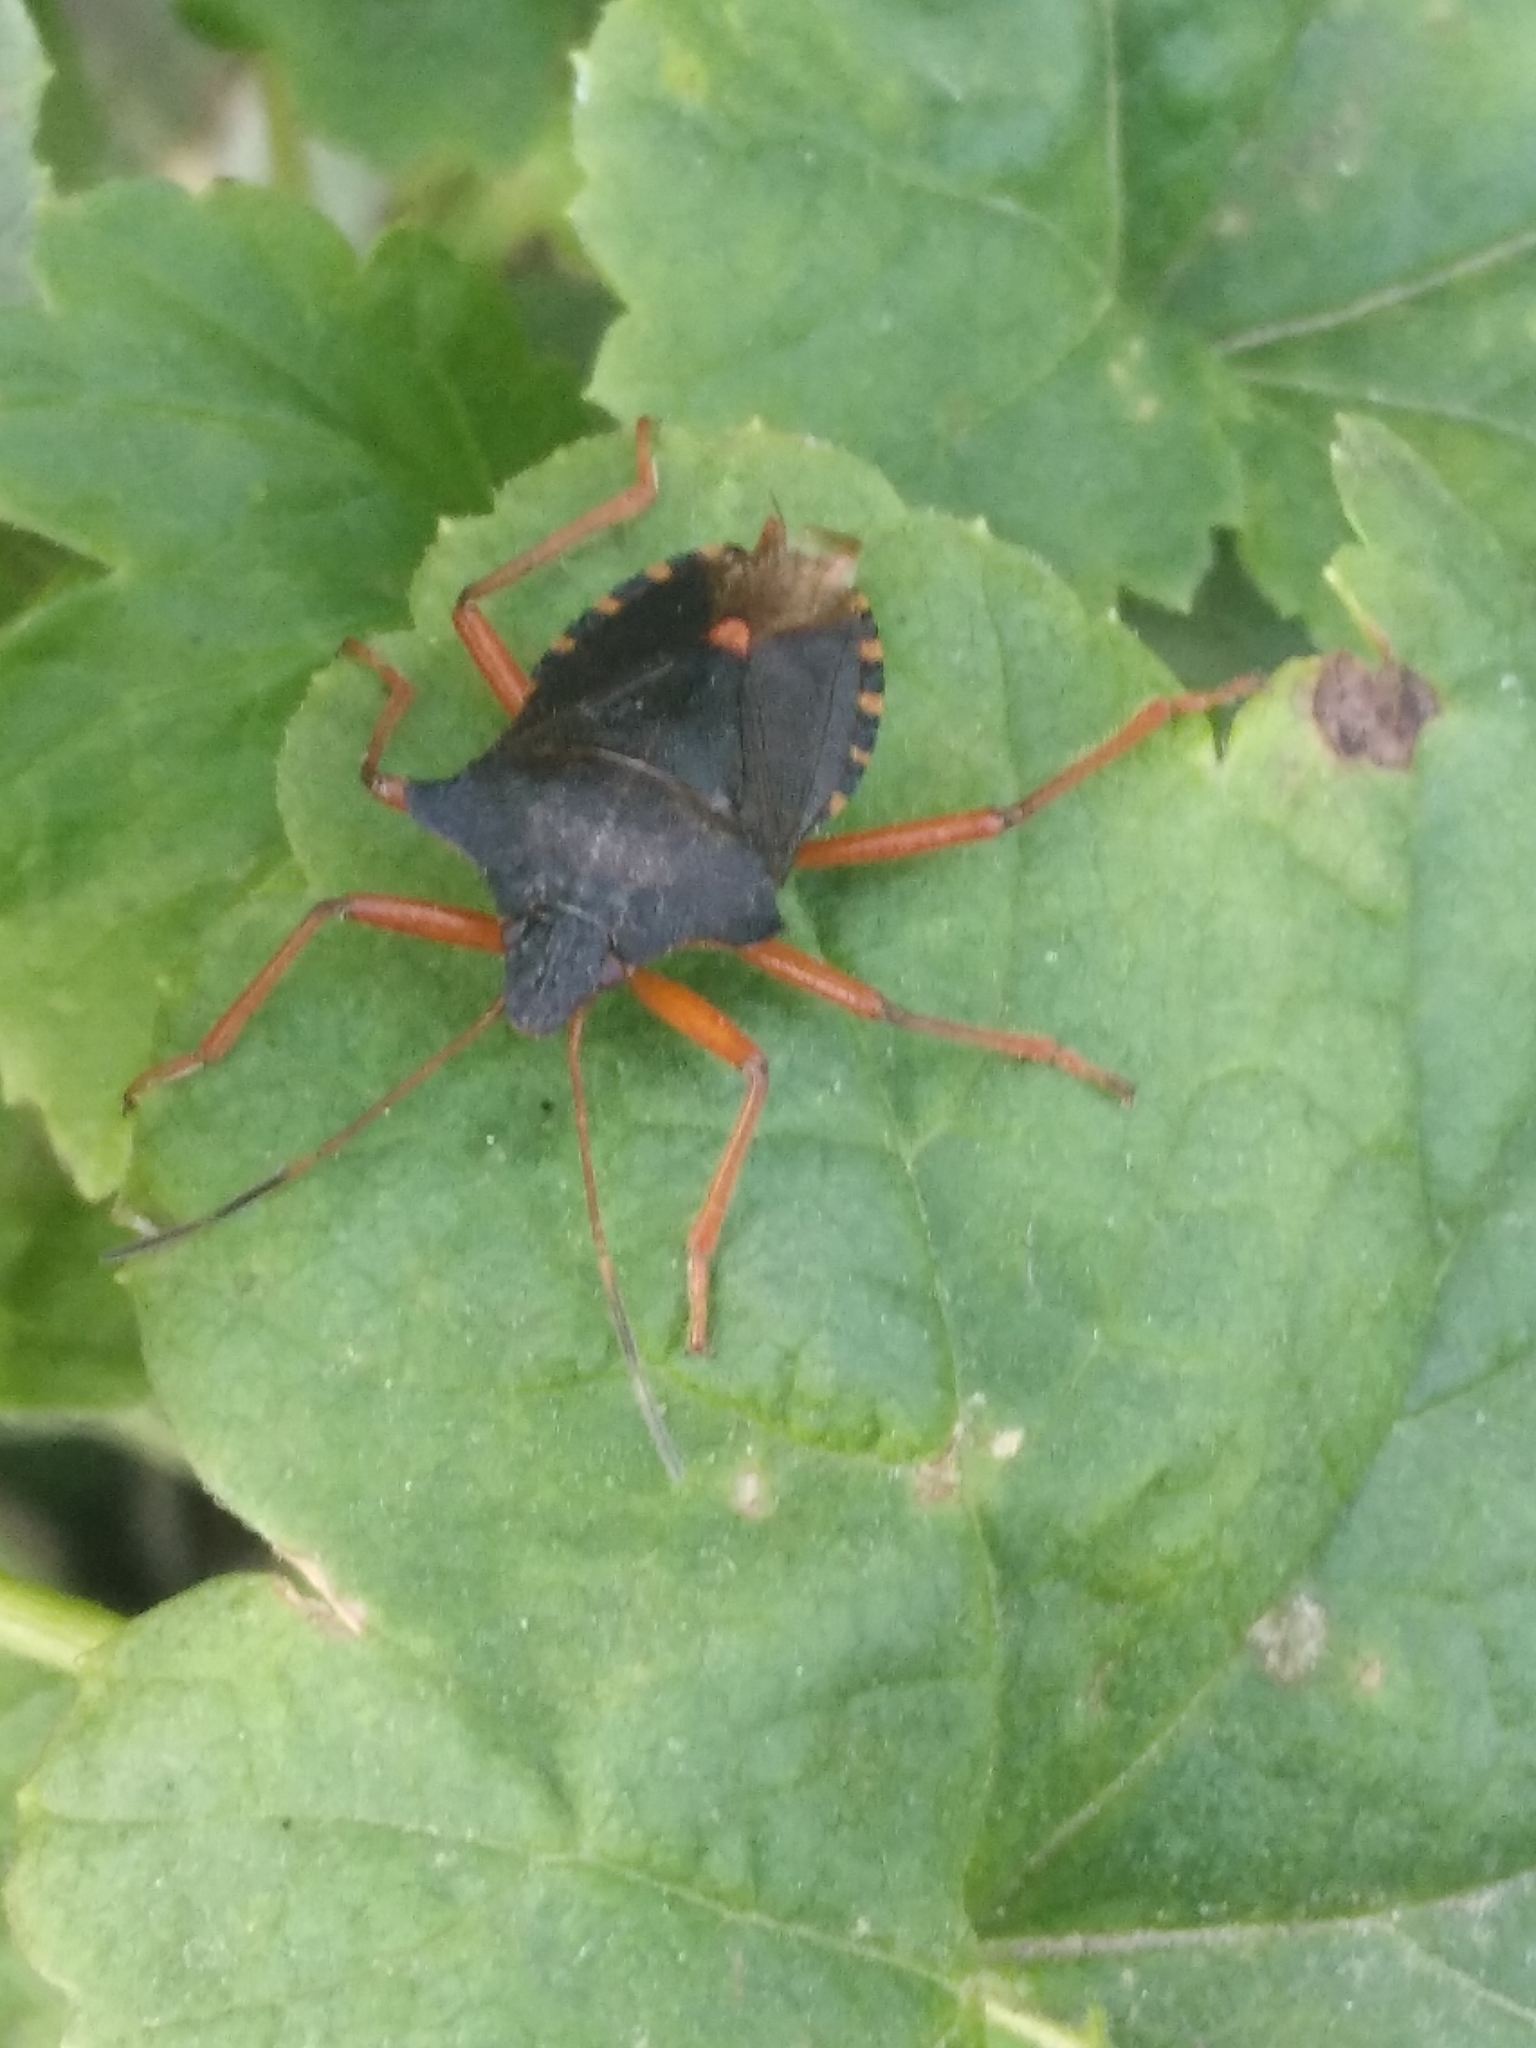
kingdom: Animalia
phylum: Arthropoda
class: Insecta
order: Hemiptera
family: Pentatomidae
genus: Pentatoma
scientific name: Pentatoma rufipes
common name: Forest bug
